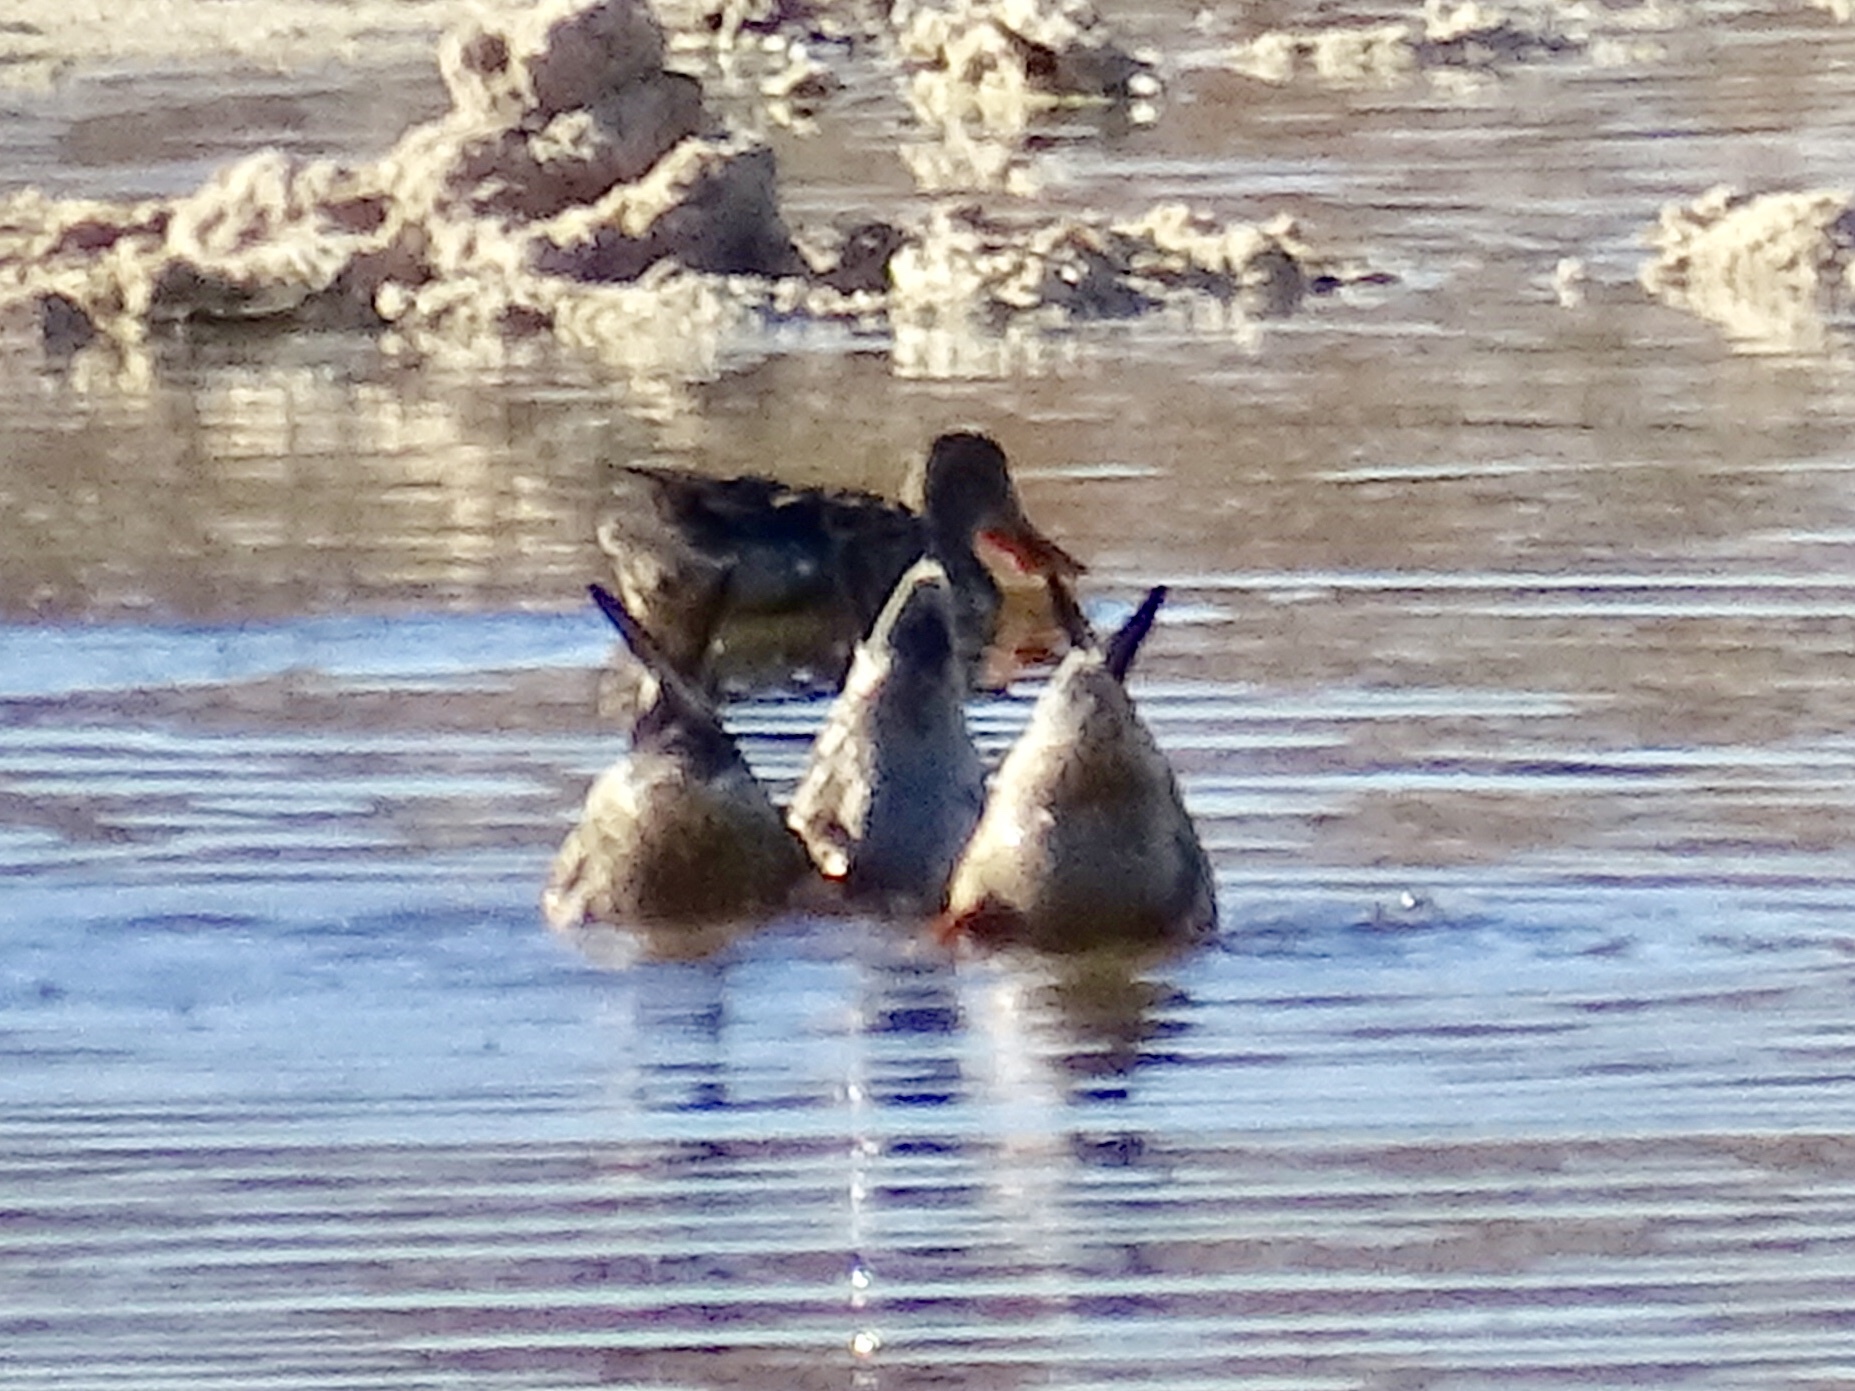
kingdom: Animalia
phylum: Chordata
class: Aves
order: Anseriformes
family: Anatidae
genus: Spatula
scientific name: Spatula clypeata
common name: Northern shoveler
